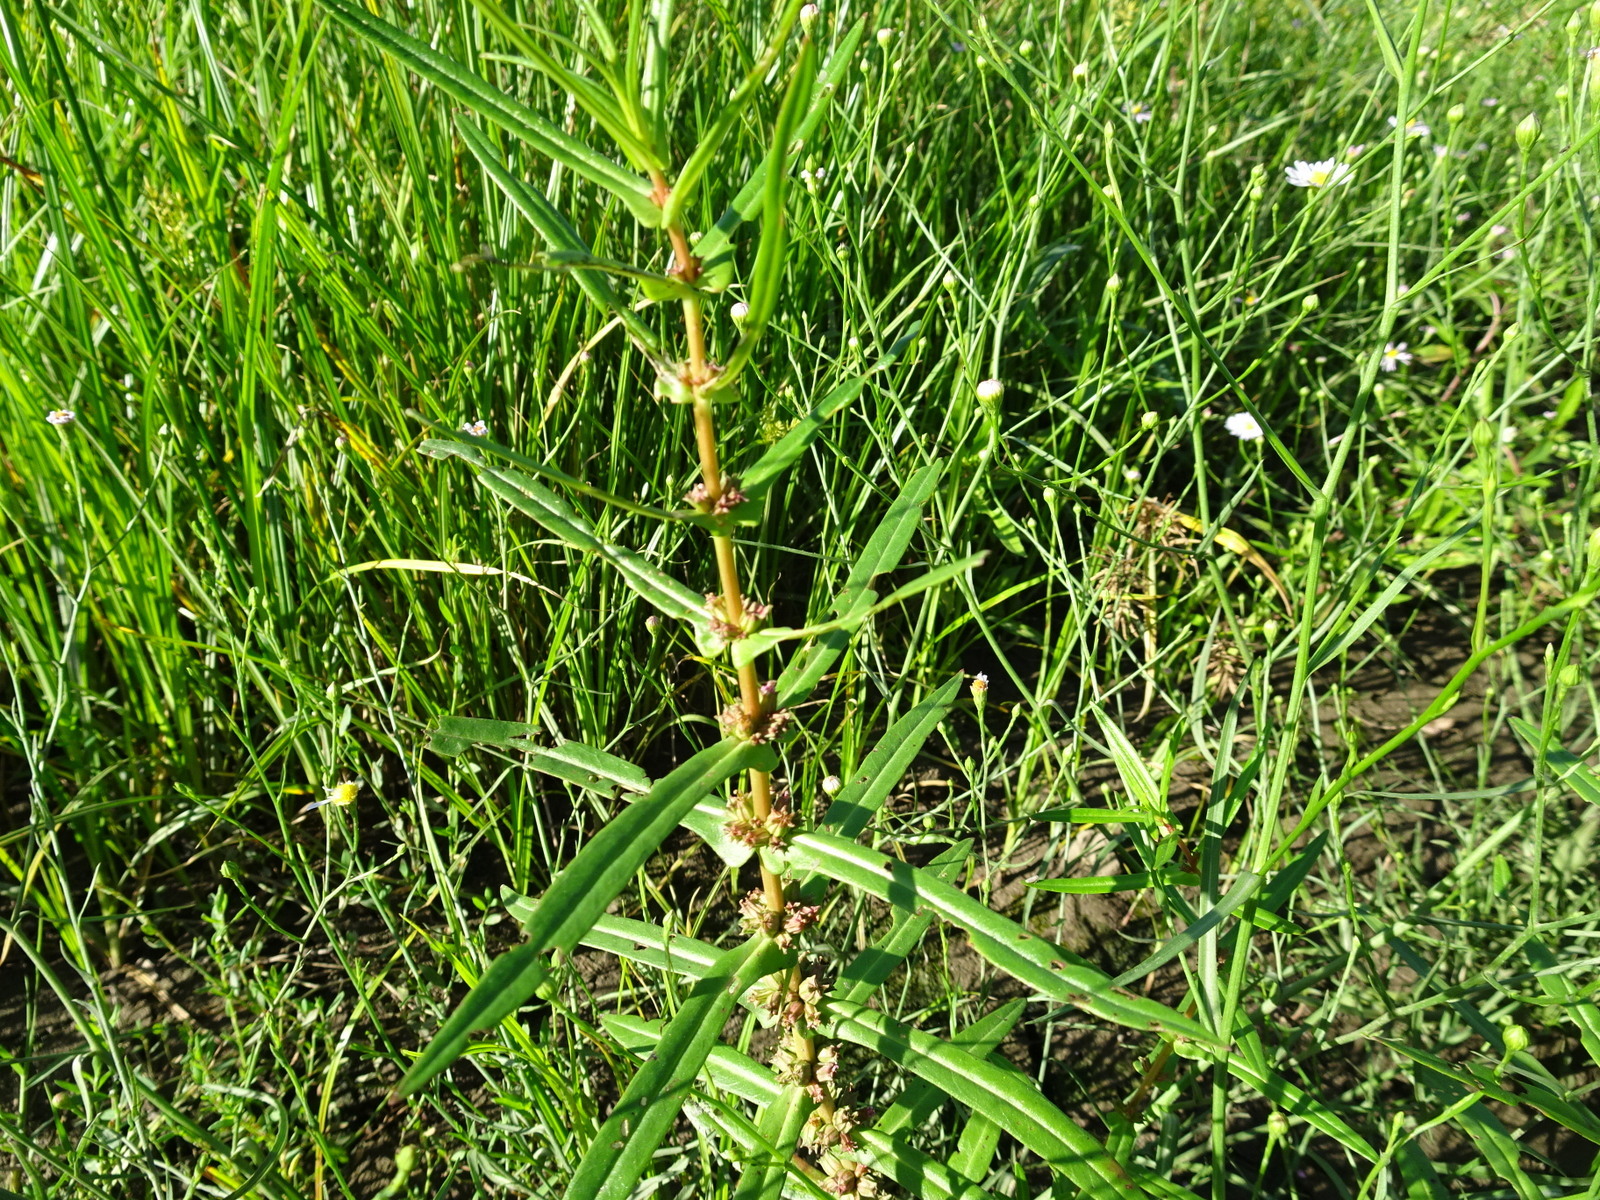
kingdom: Plantae
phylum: Tracheophyta
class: Magnoliopsida
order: Myrtales
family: Lythraceae
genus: Ammannia
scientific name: Ammannia coccinea
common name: Valley redstem
